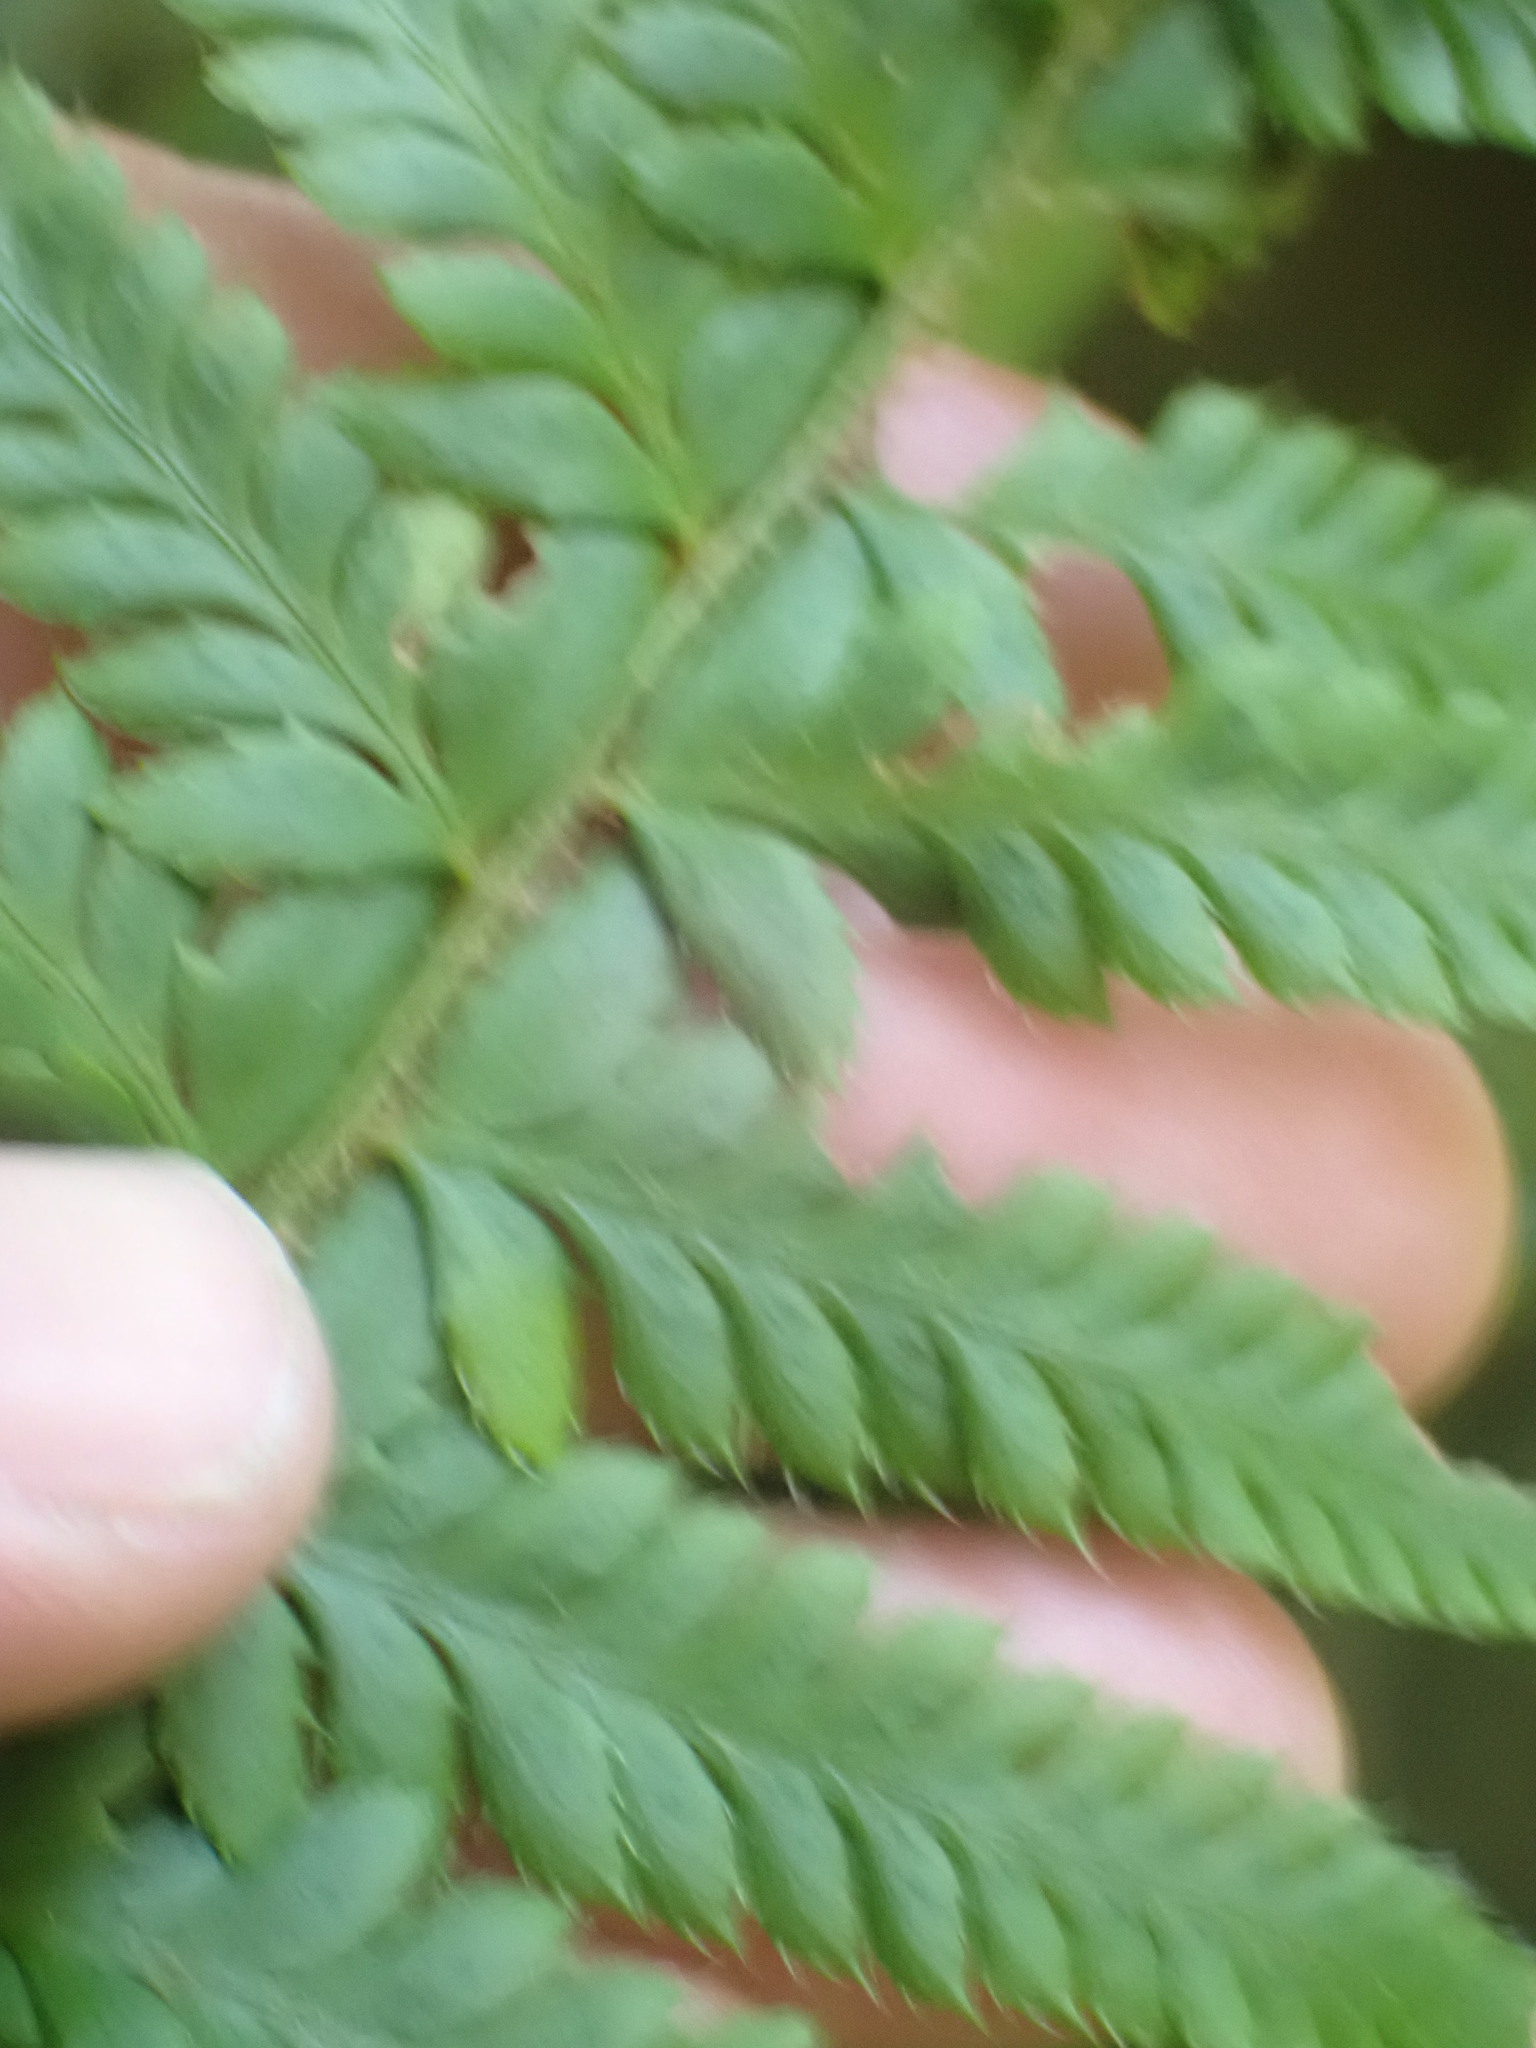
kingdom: Plantae
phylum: Tracheophyta
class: Polypodiopsida
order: Polypodiales
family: Dryopteridaceae
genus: Polystichum
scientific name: Polystichum andersonii
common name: Anderson's holly fern
